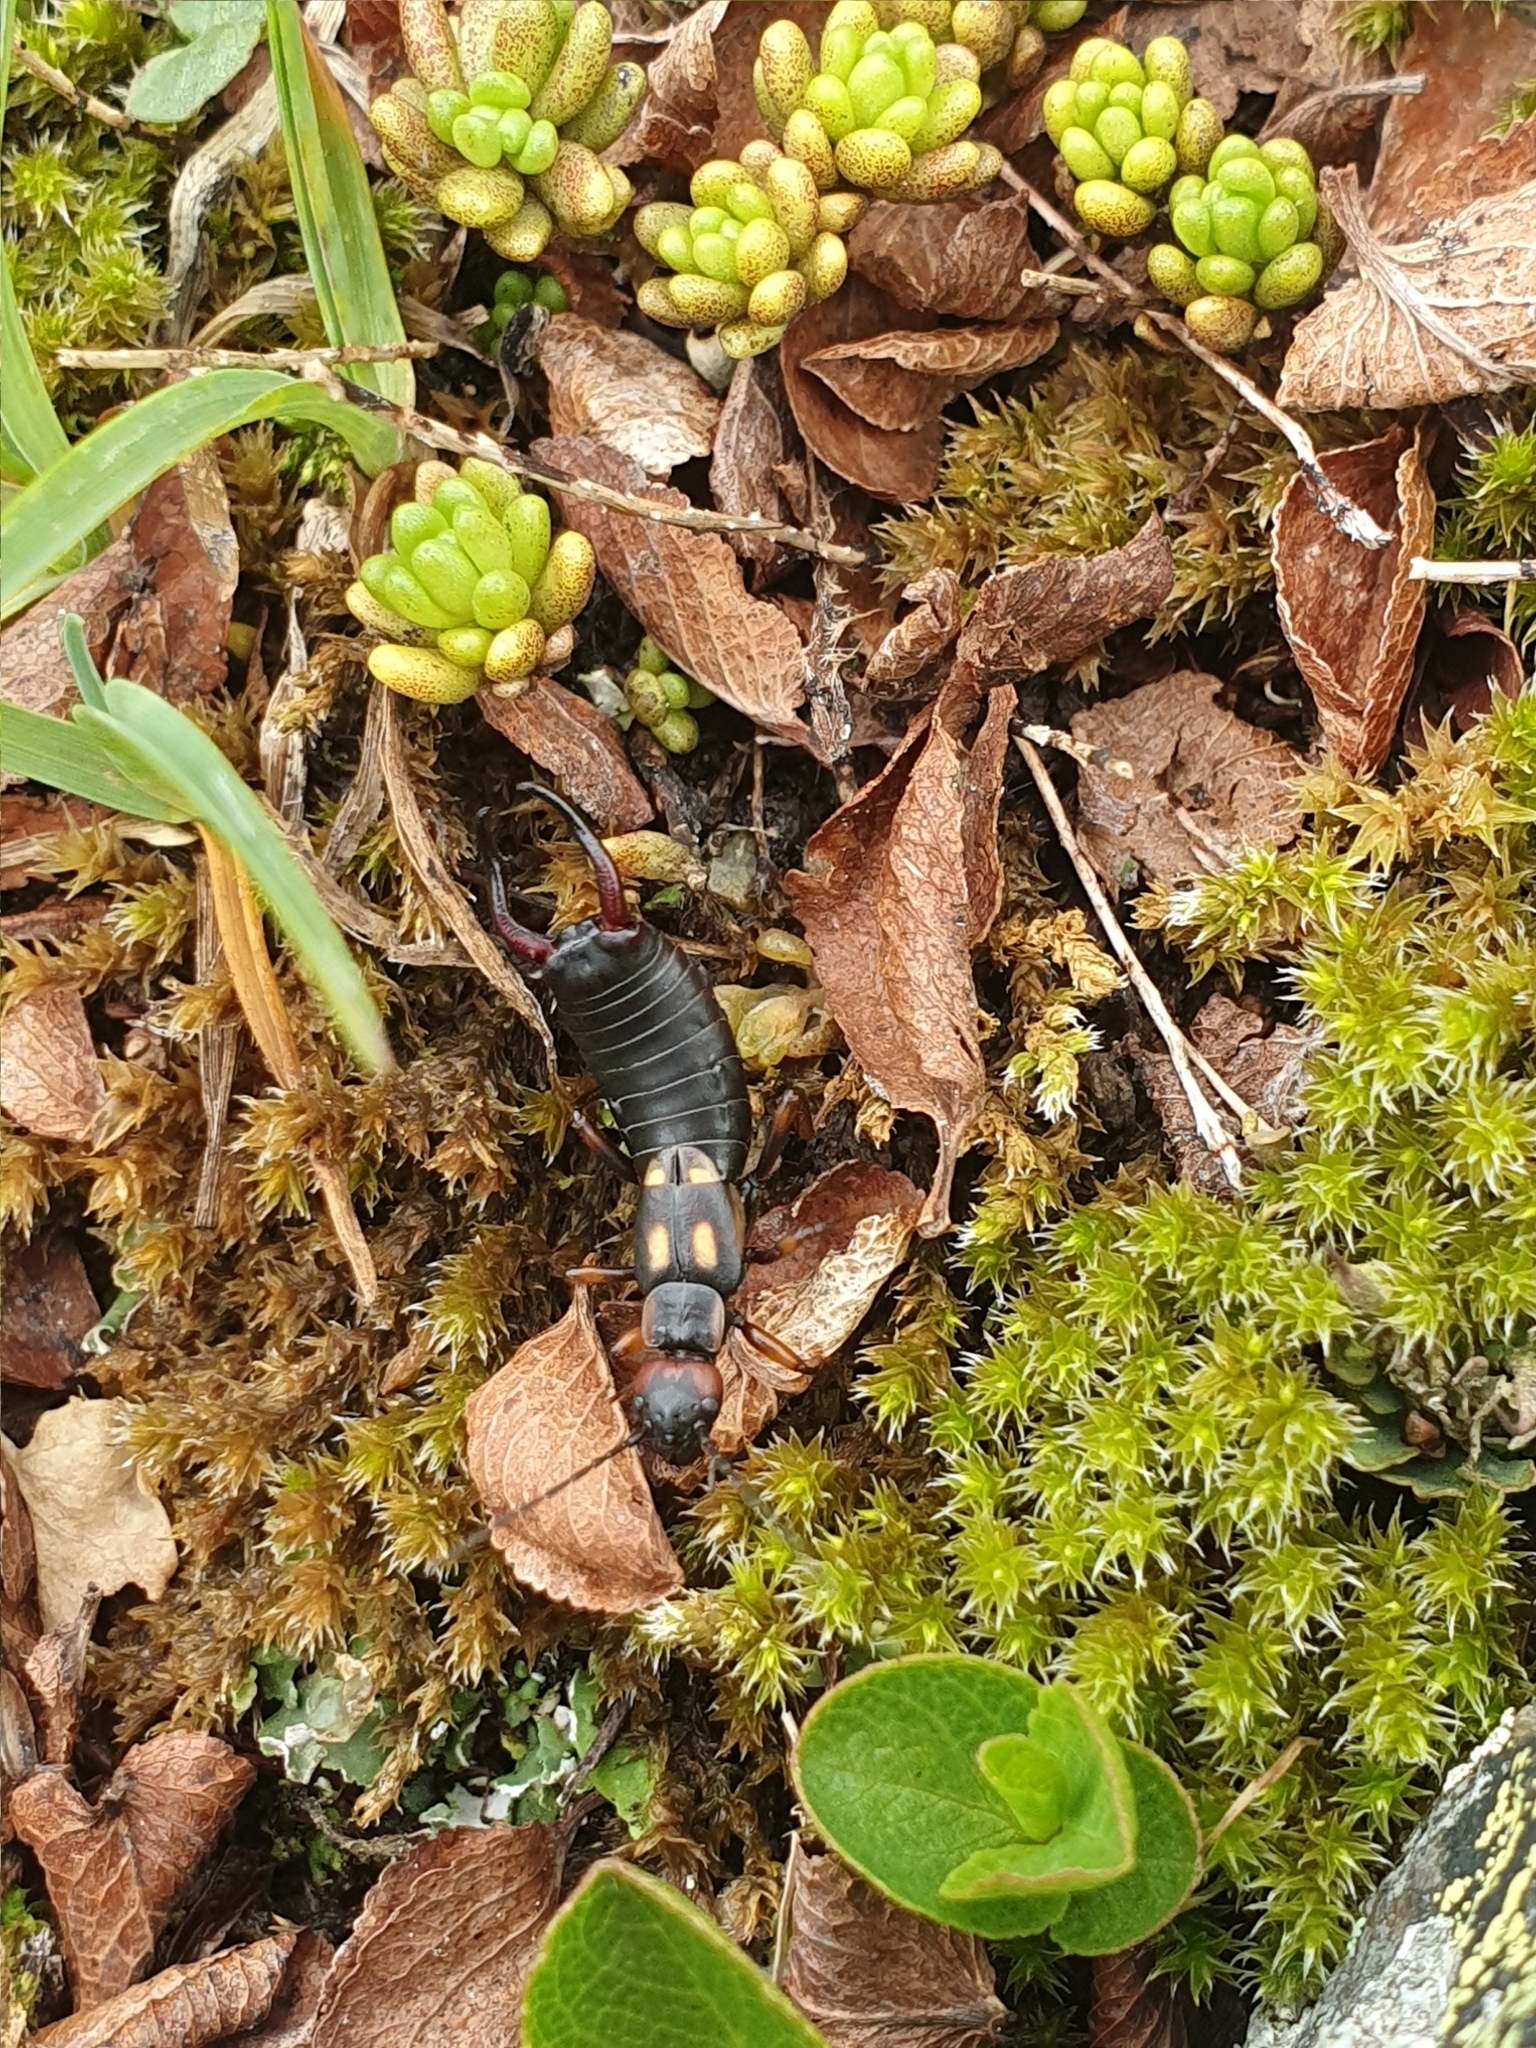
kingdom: Animalia
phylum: Arthropoda
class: Insecta
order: Dermaptera
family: Forficulidae
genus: Anechura
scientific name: Anechura bipunctata
